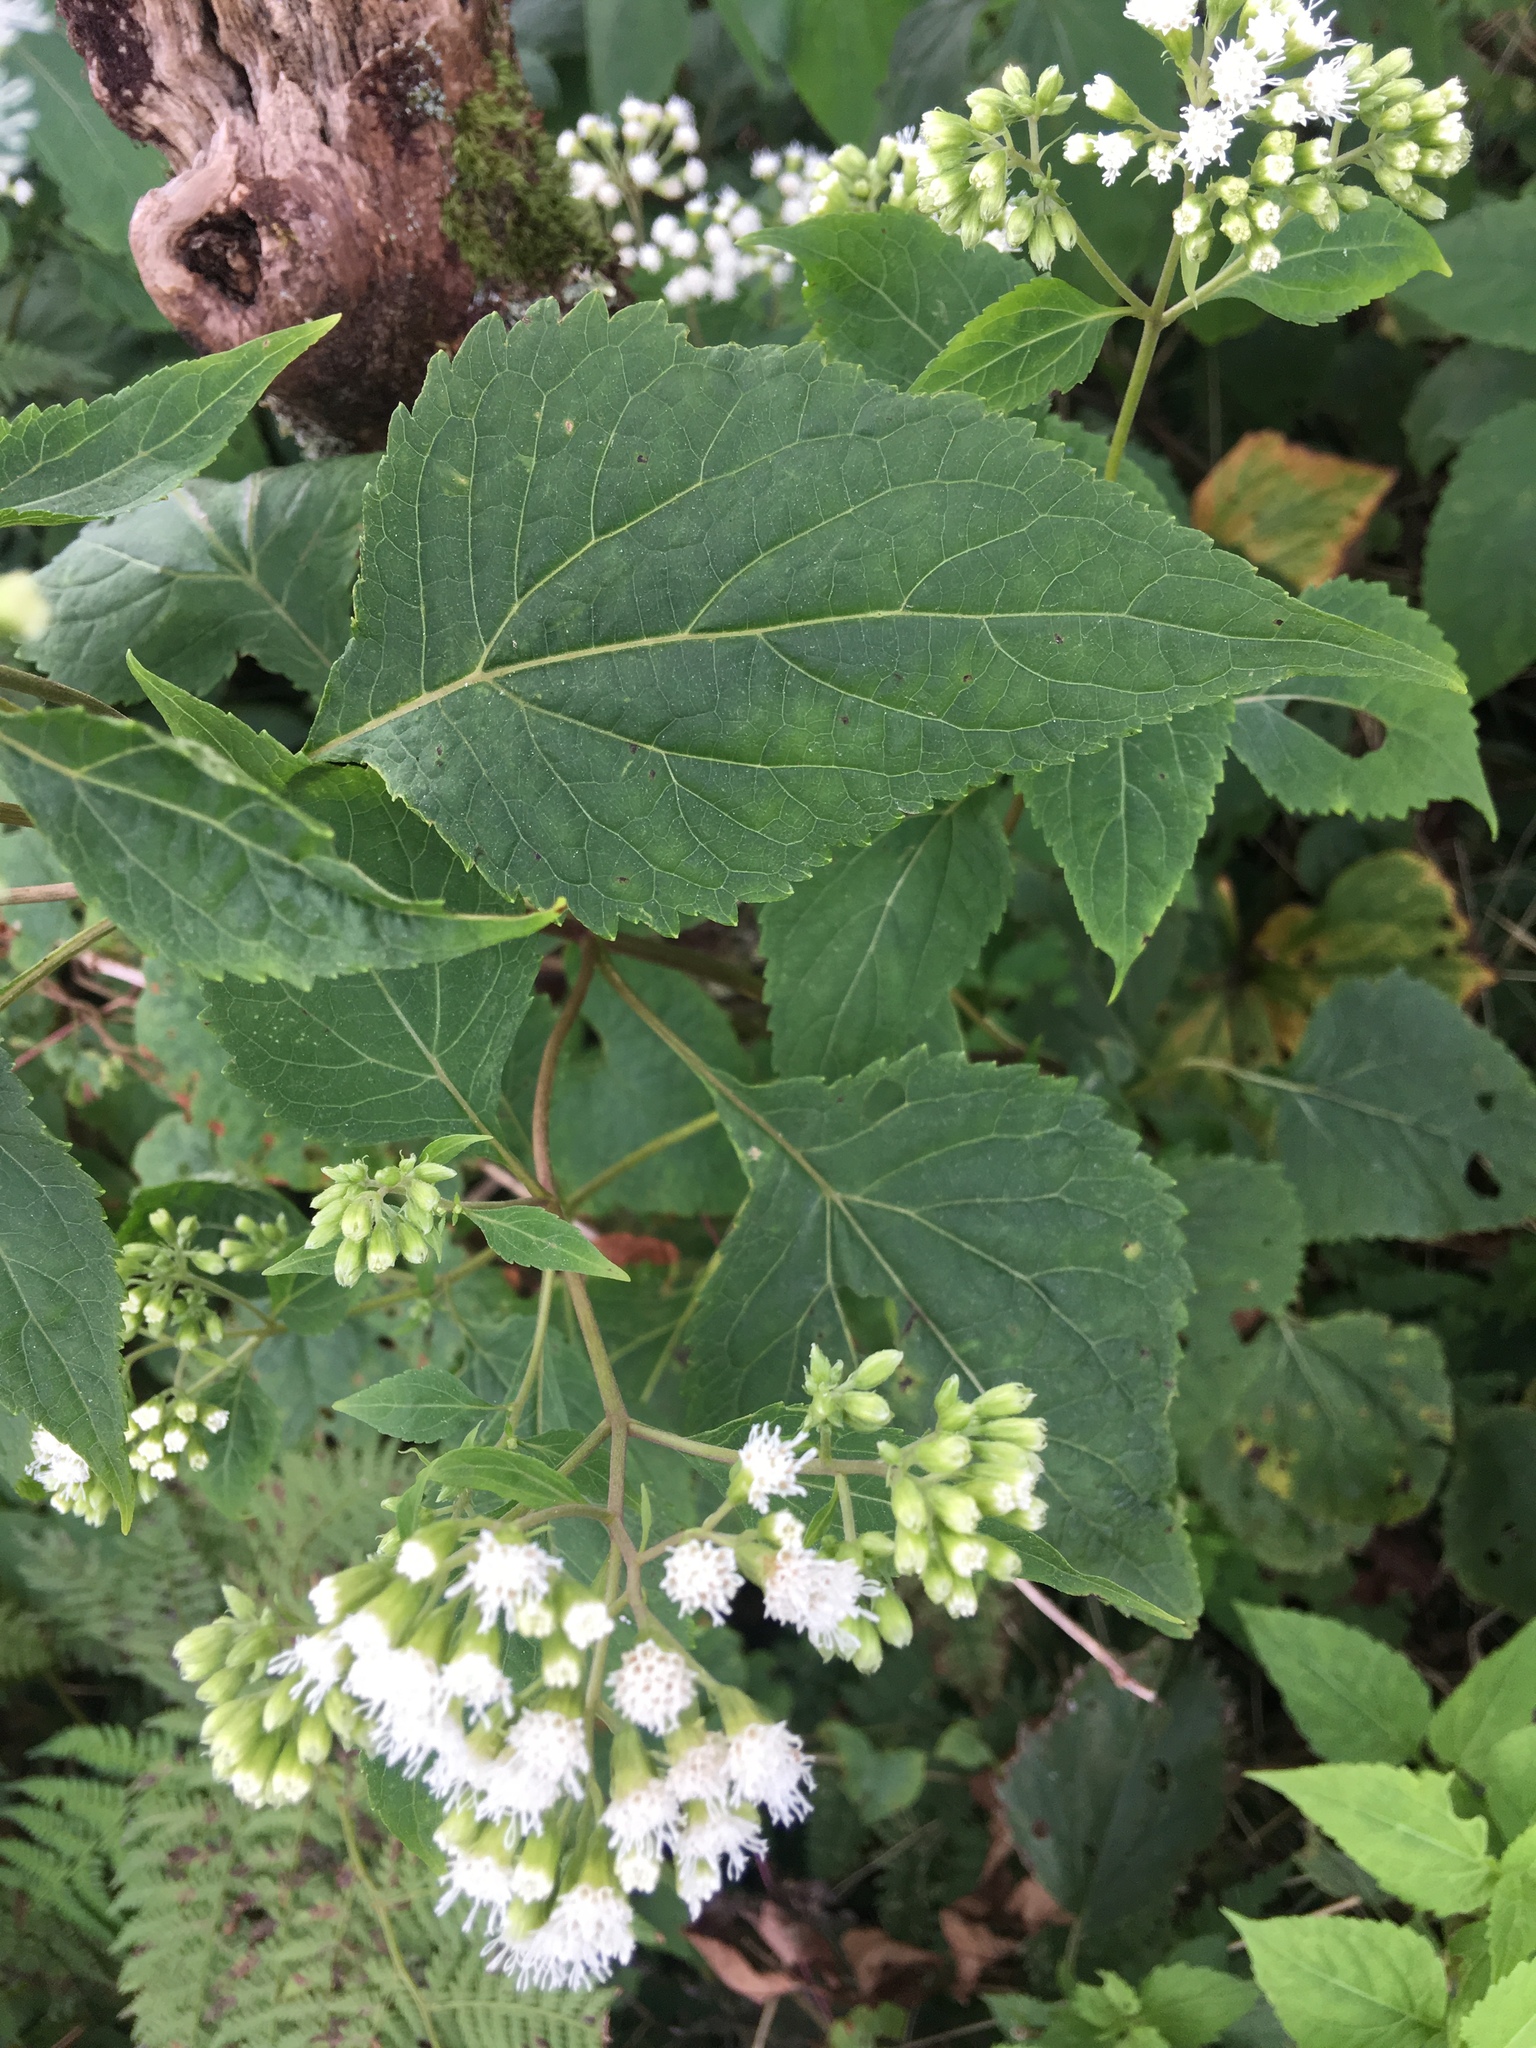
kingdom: Plantae
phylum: Tracheophyta
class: Magnoliopsida
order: Asterales
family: Asteraceae
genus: Ageratina
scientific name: Ageratina altissima
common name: White snakeroot
